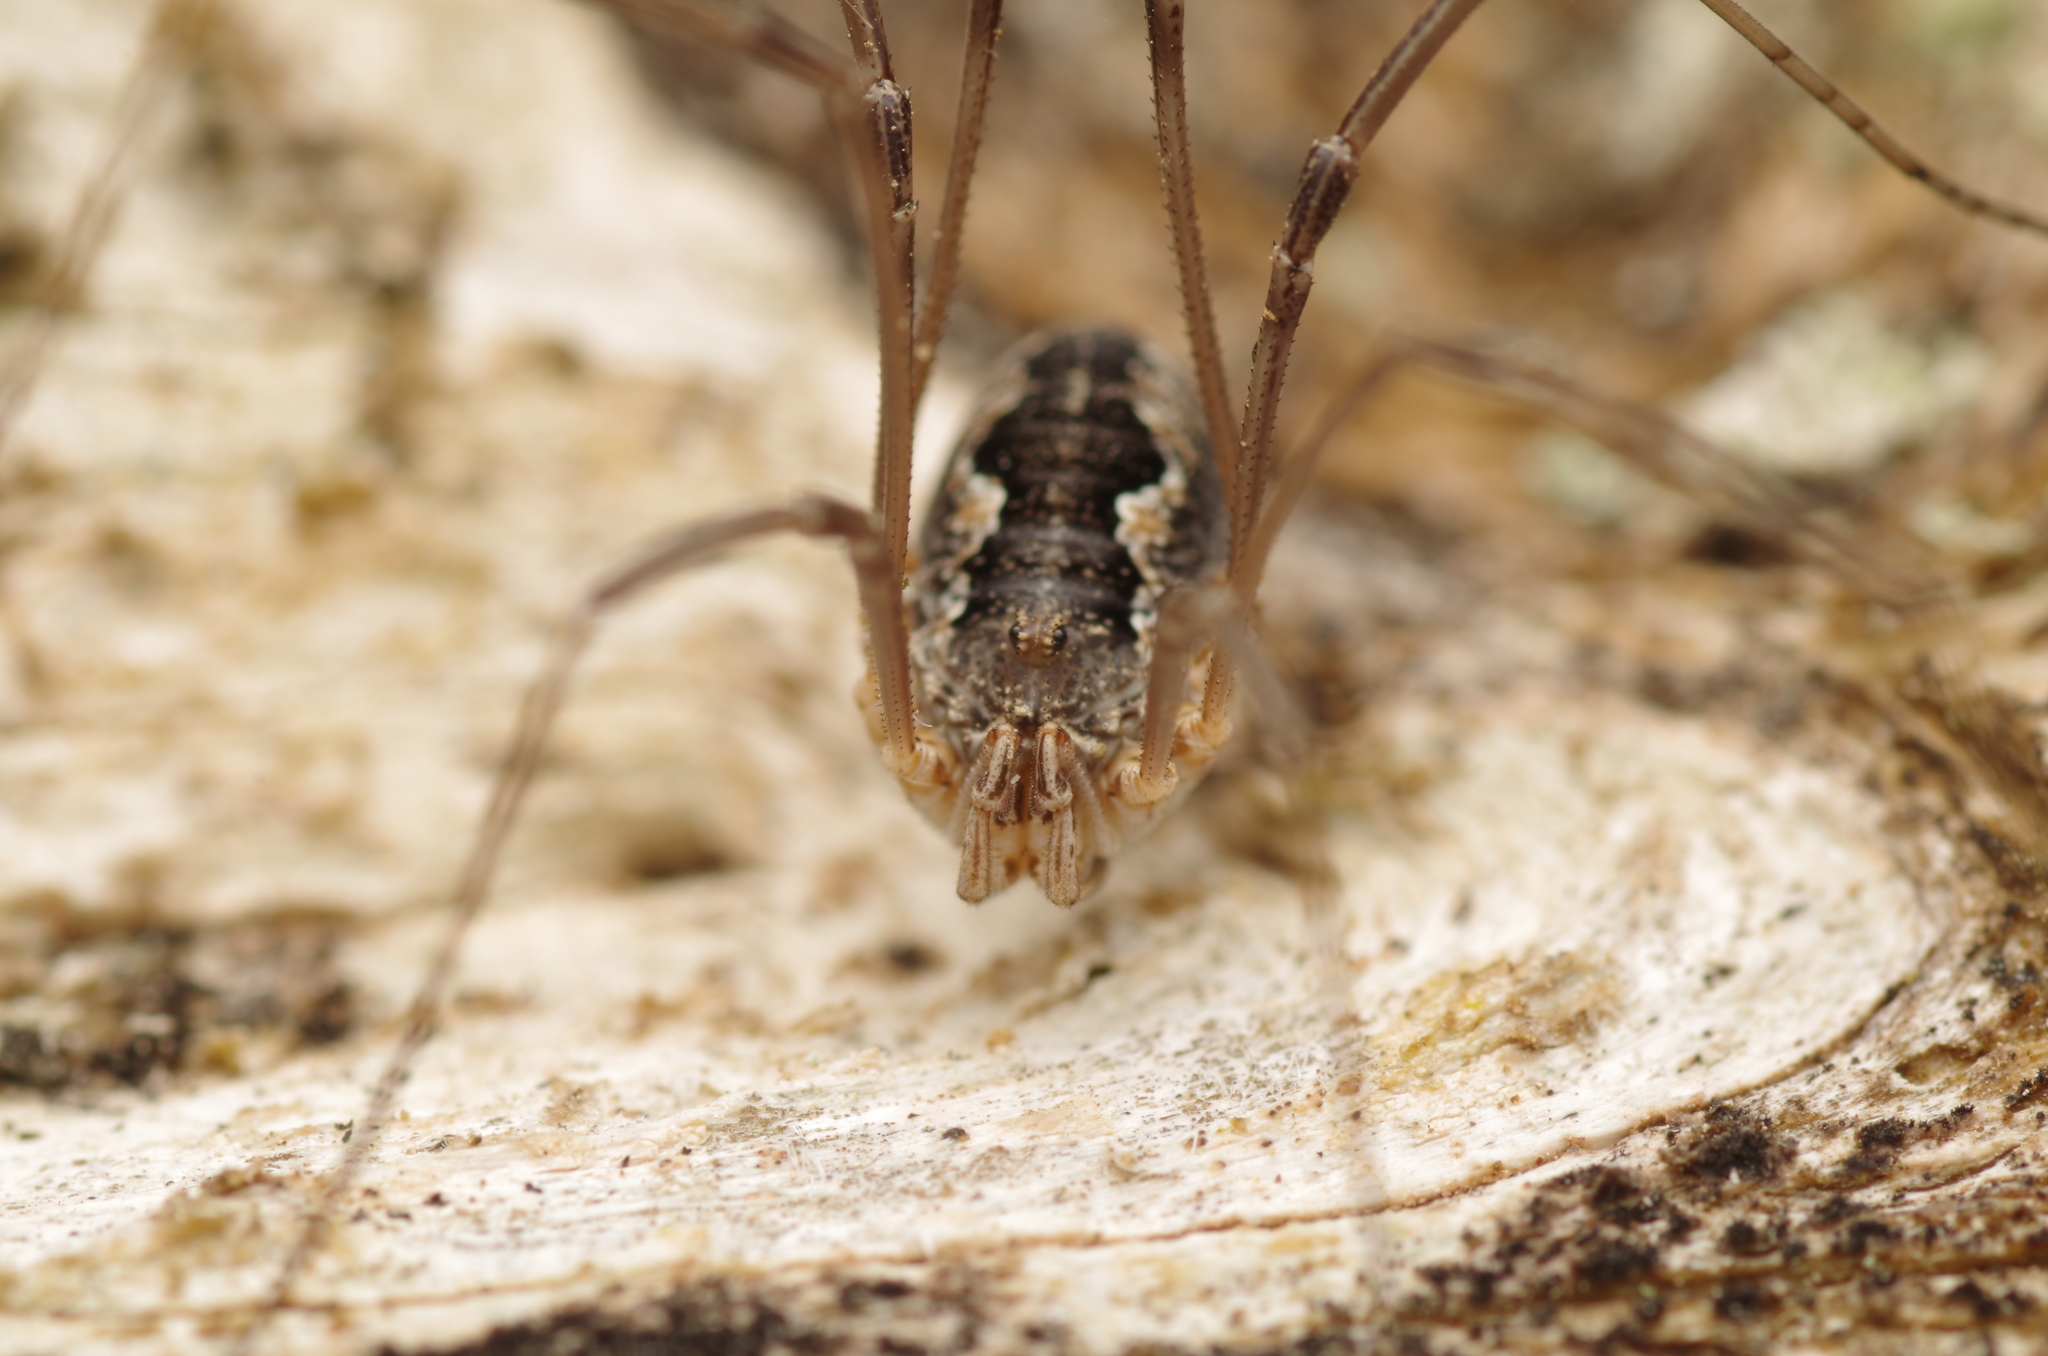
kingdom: Animalia
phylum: Arthropoda
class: Arachnida
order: Opiliones
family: Phalangiidae
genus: Phalangium
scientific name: Phalangium opilio
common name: Daddy longleg
